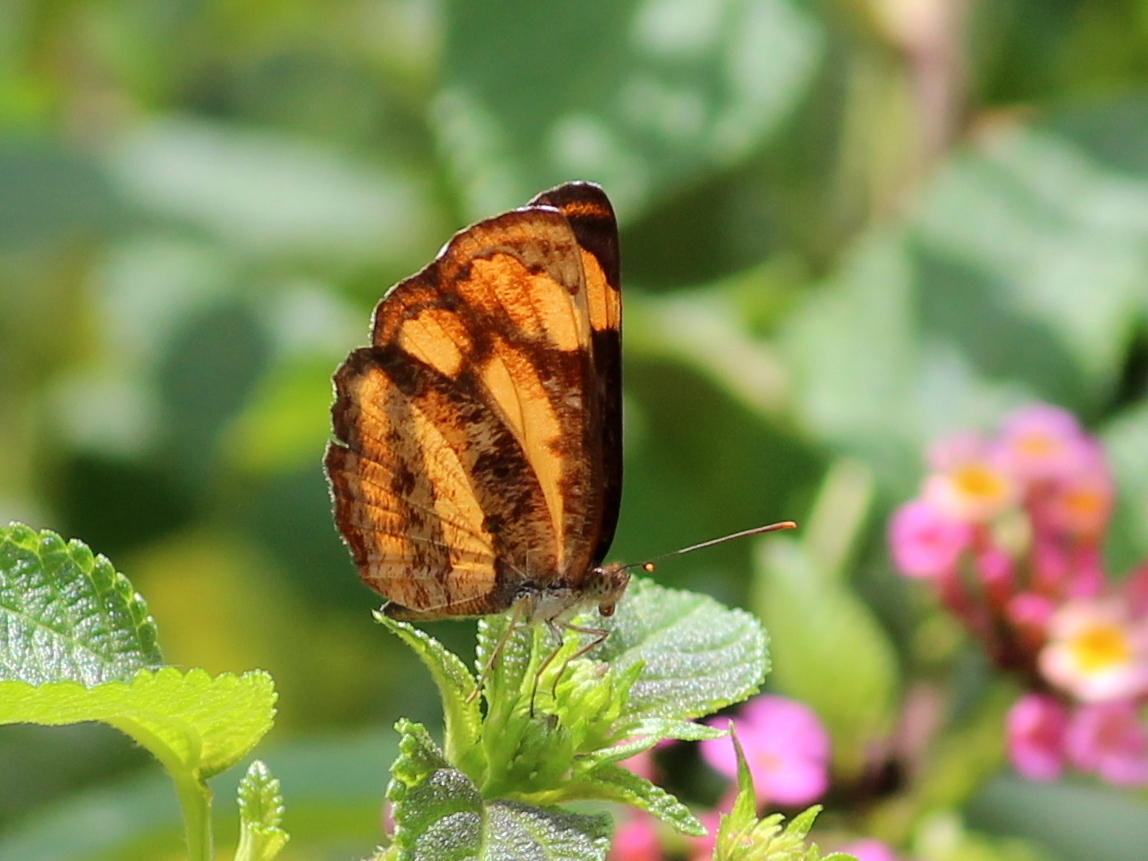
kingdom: Animalia
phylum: Arthropoda
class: Insecta
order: Lepidoptera
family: Nymphalidae
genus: Pantoporia
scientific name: Pantoporia hordonia
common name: Common lascar
